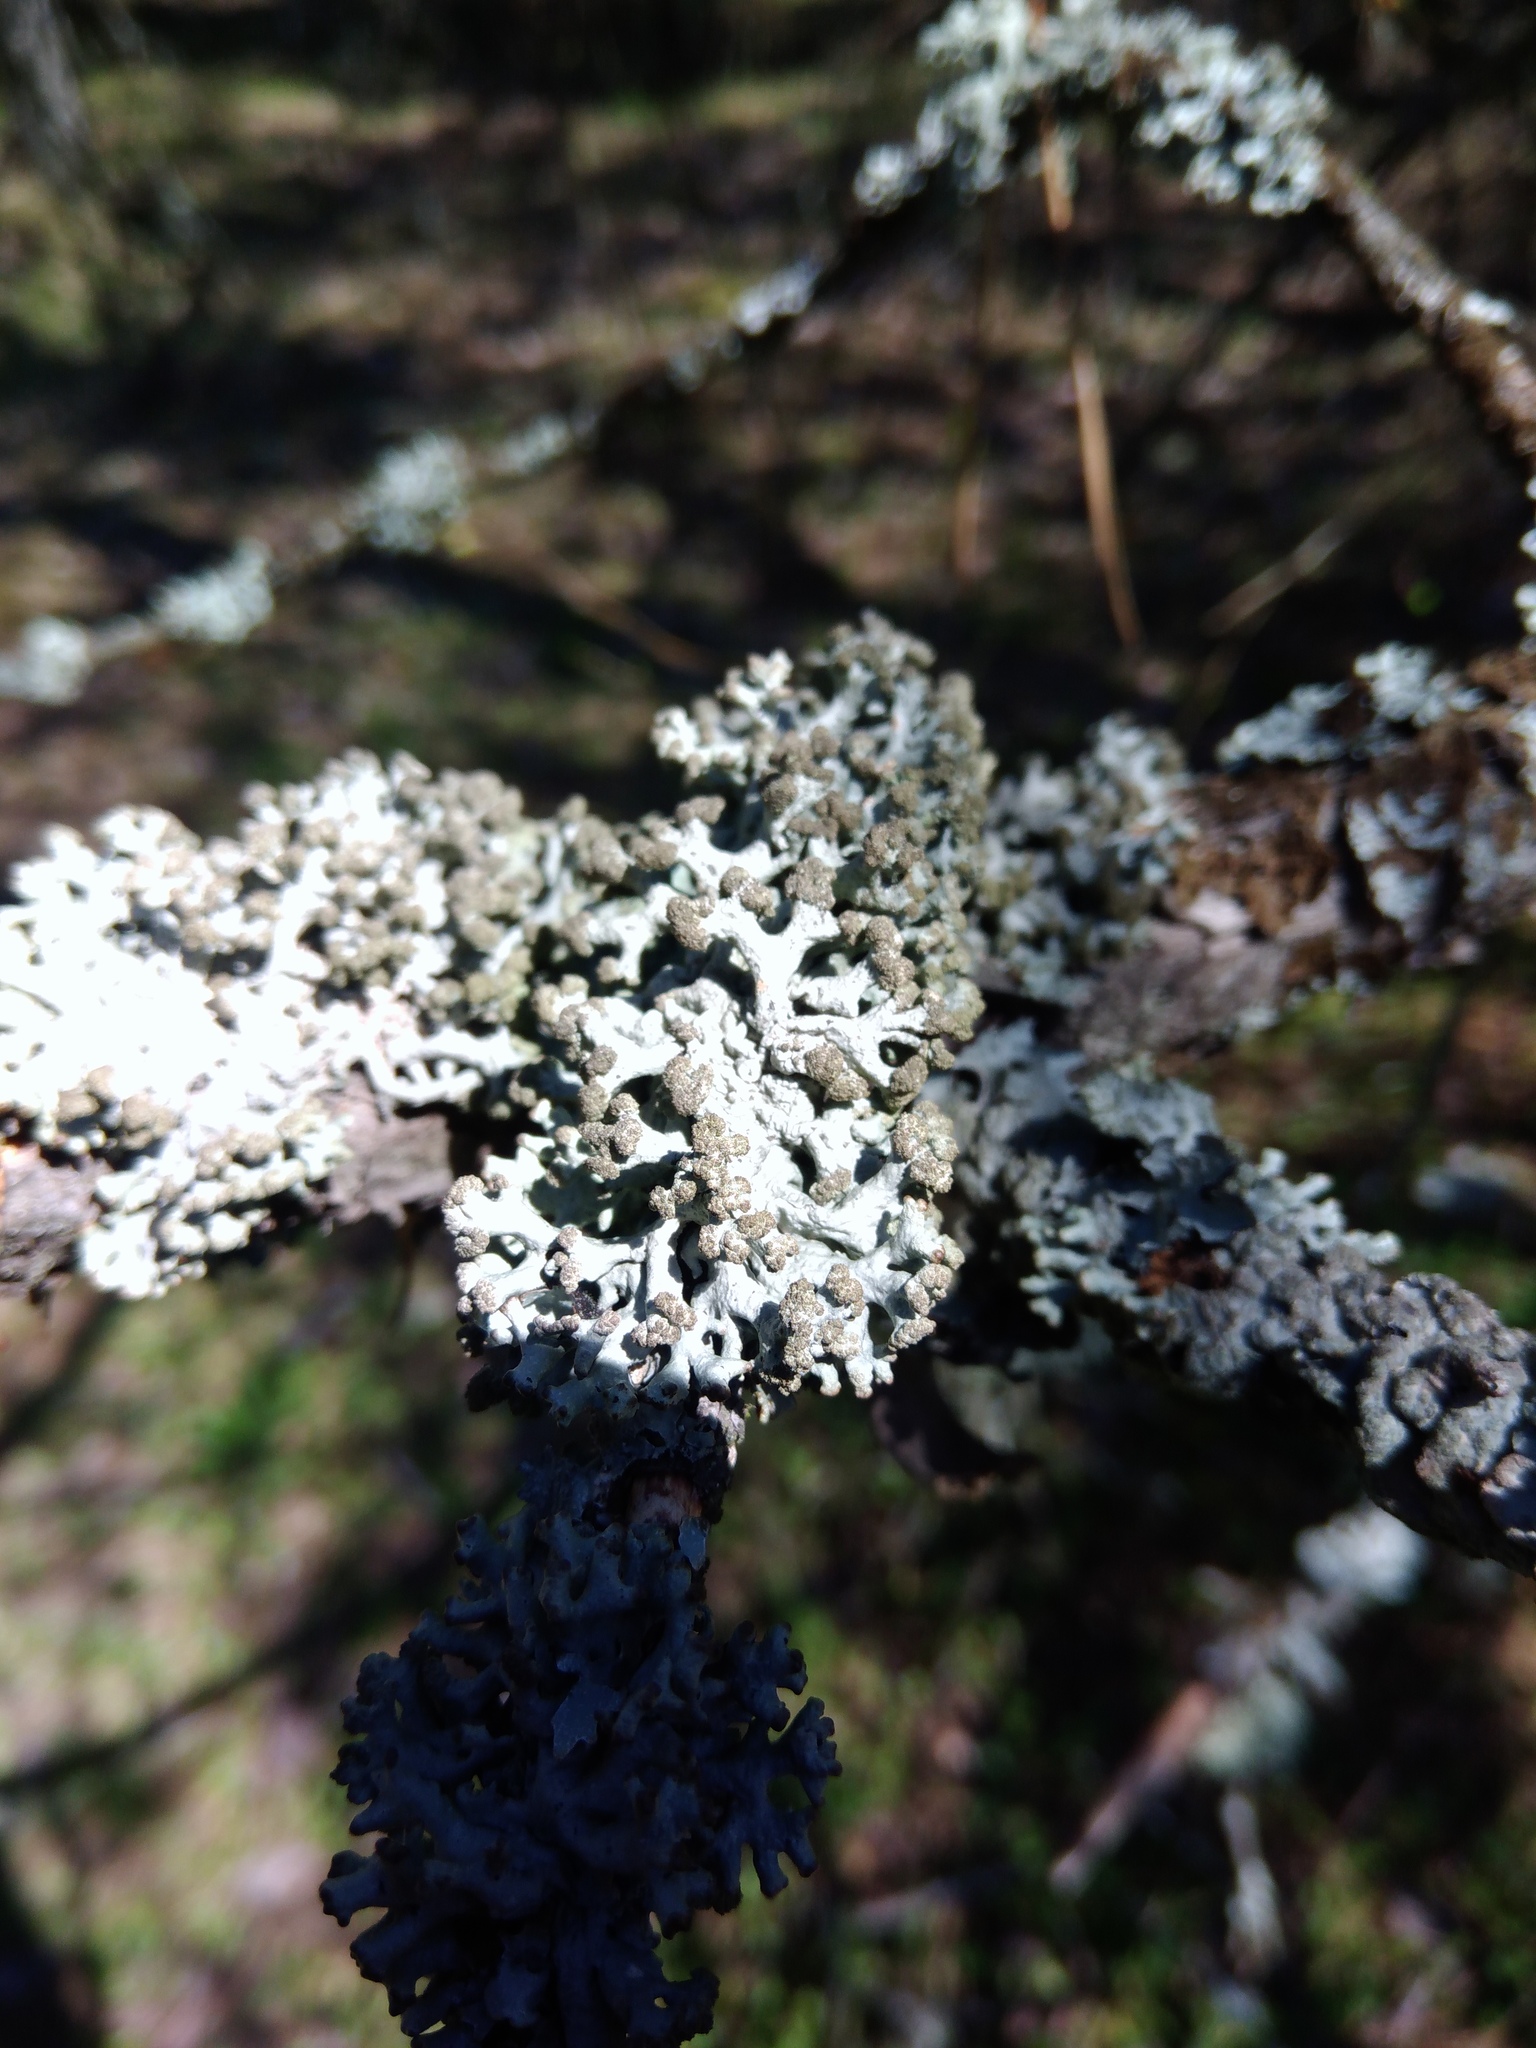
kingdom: Fungi
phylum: Ascomycota
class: Lecanoromycetes
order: Lecanorales
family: Parmeliaceae
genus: Hypogymnia
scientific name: Hypogymnia tubulosa
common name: Powder-headed tube lichen
